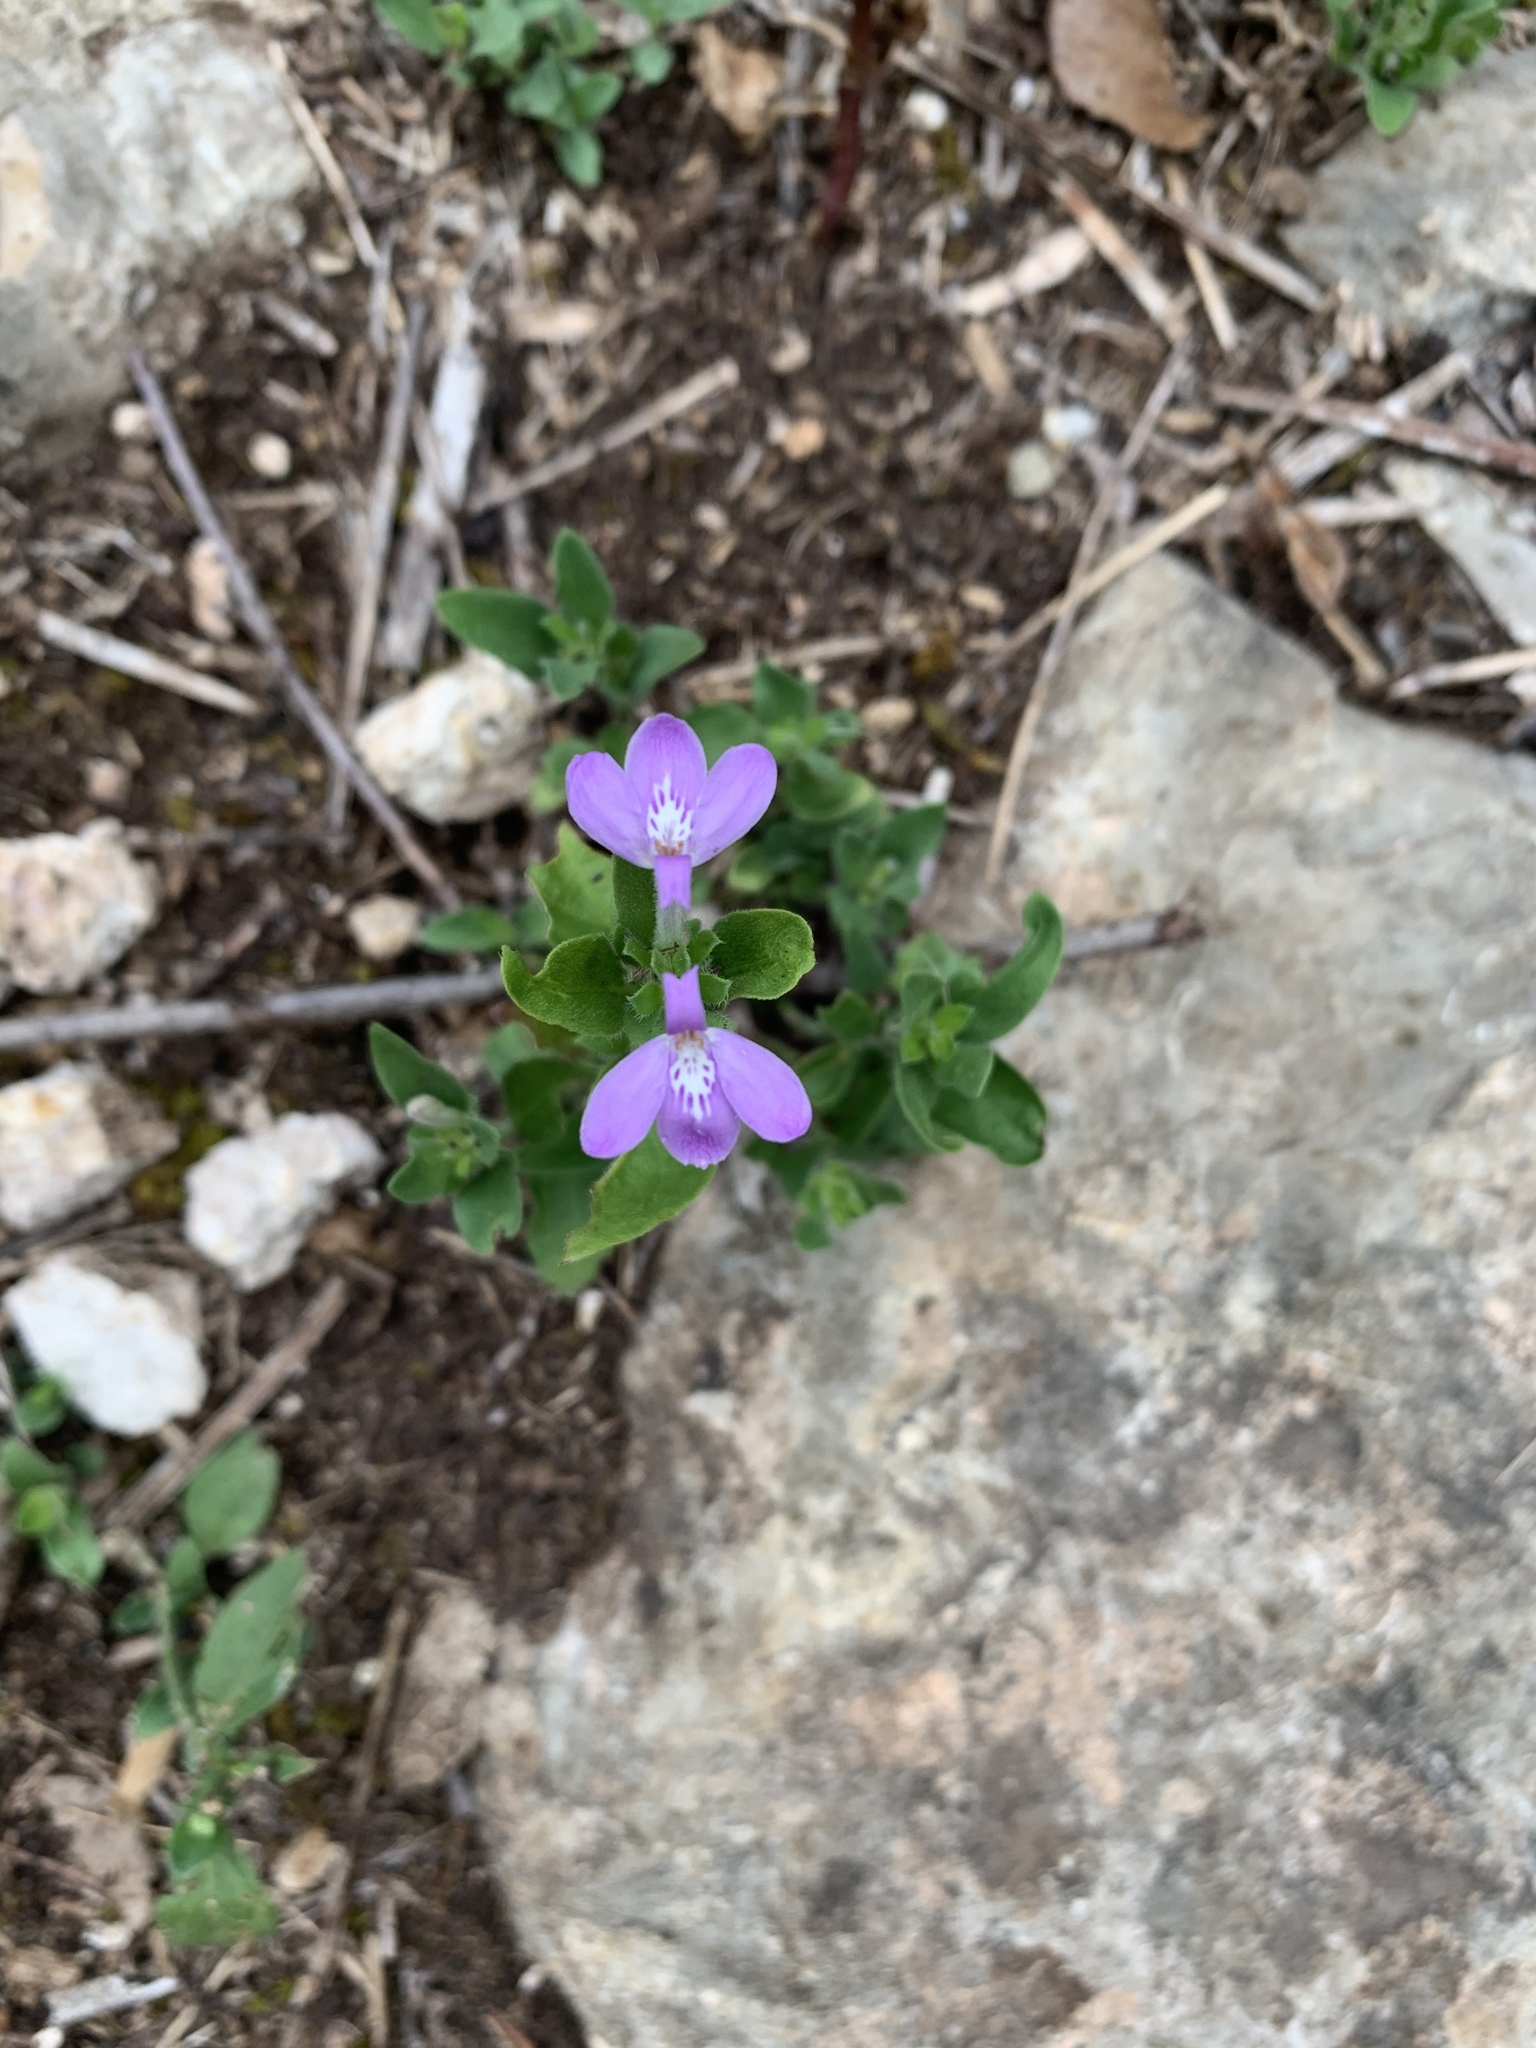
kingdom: Plantae
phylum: Tracheophyta
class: Magnoliopsida
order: Lamiales
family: Acanthaceae
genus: Justicia
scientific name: Justicia pilosella
